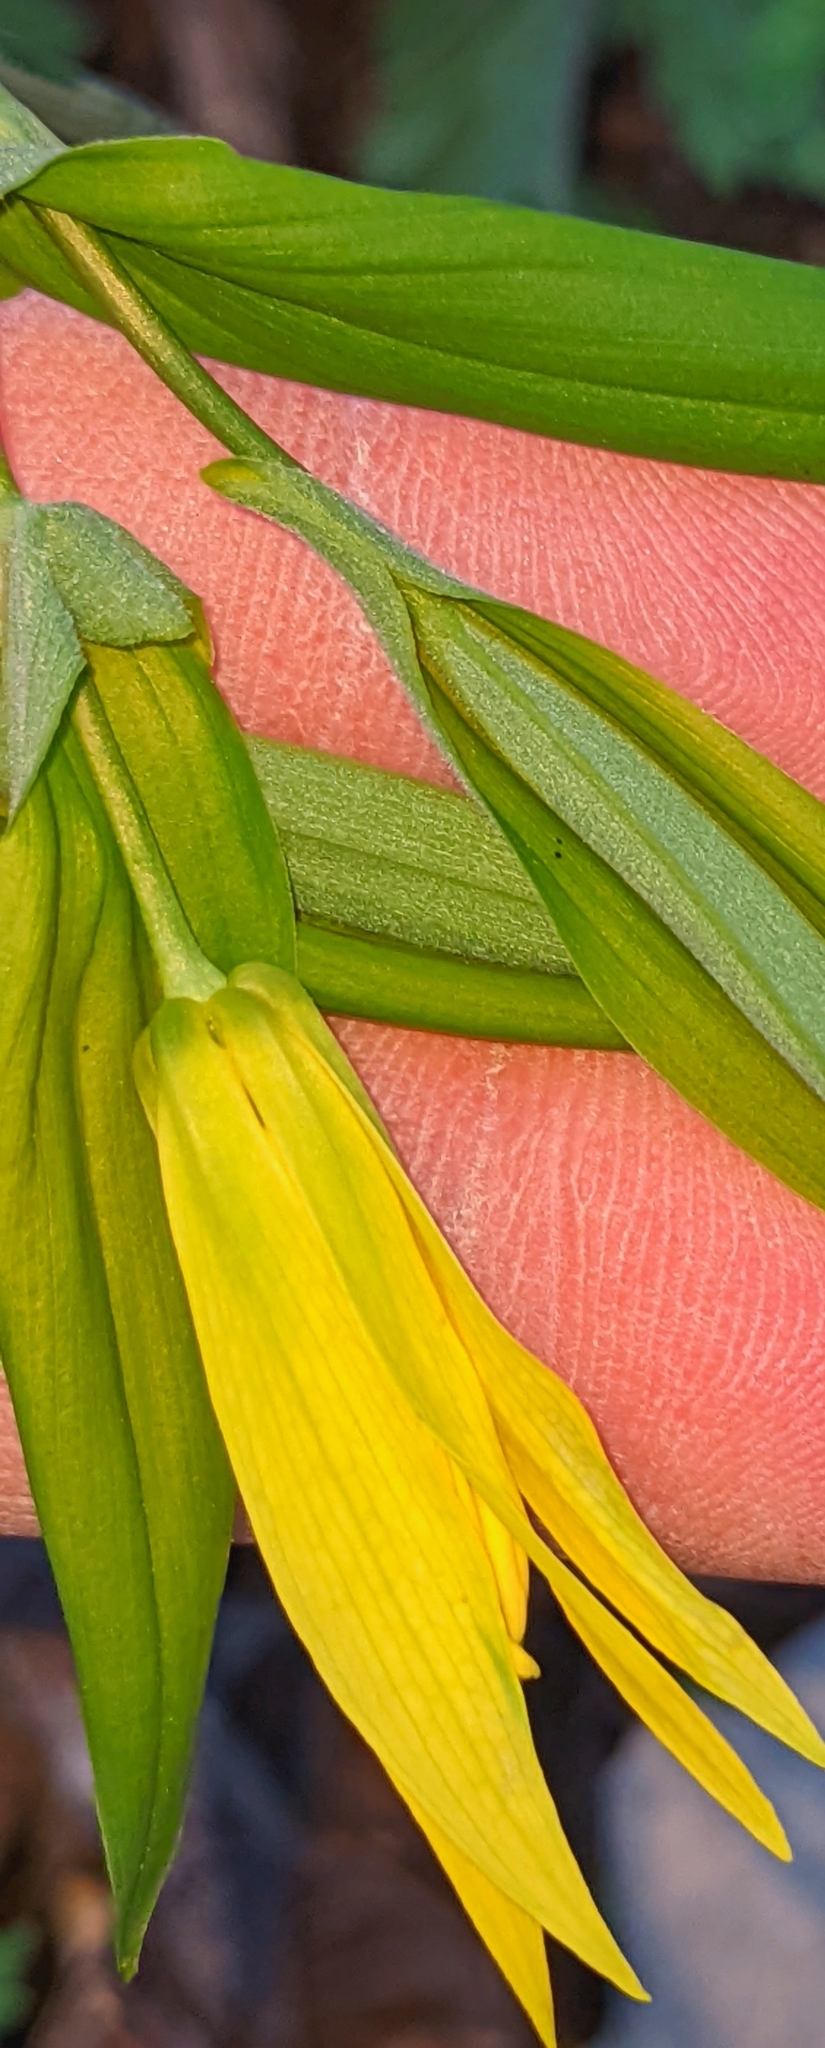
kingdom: Plantae
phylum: Tracheophyta
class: Liliopsida
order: Liliales
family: Colchicaceae
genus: Uvularia
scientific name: Uvularia grandiflora
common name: Bellwort
